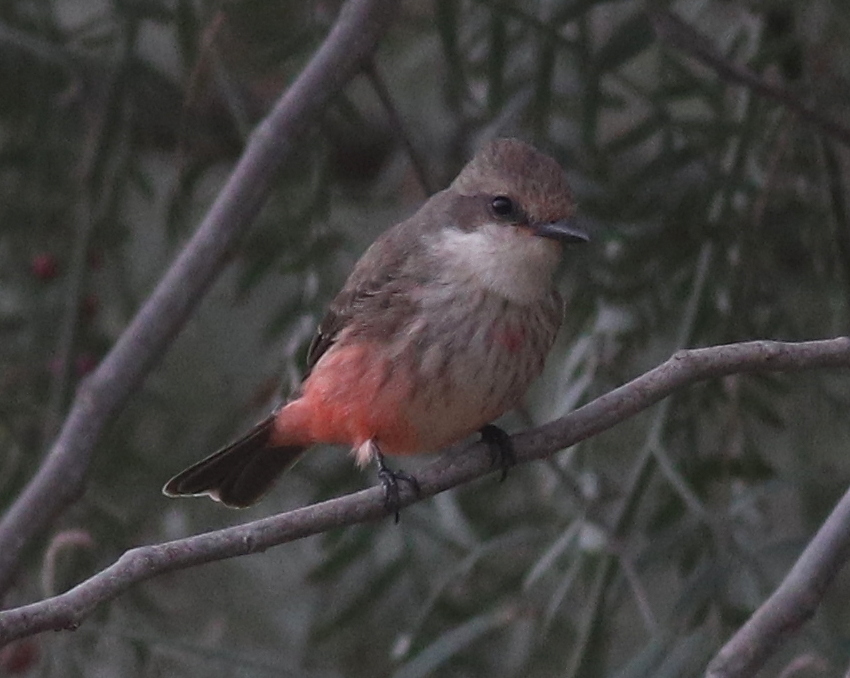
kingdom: Animalia
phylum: Chordata
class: Aves
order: Passeriformes
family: Tyrannidae
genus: Pyrocephalus
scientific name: Pyrocephalus rubinus
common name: Vermilion flycatcher
